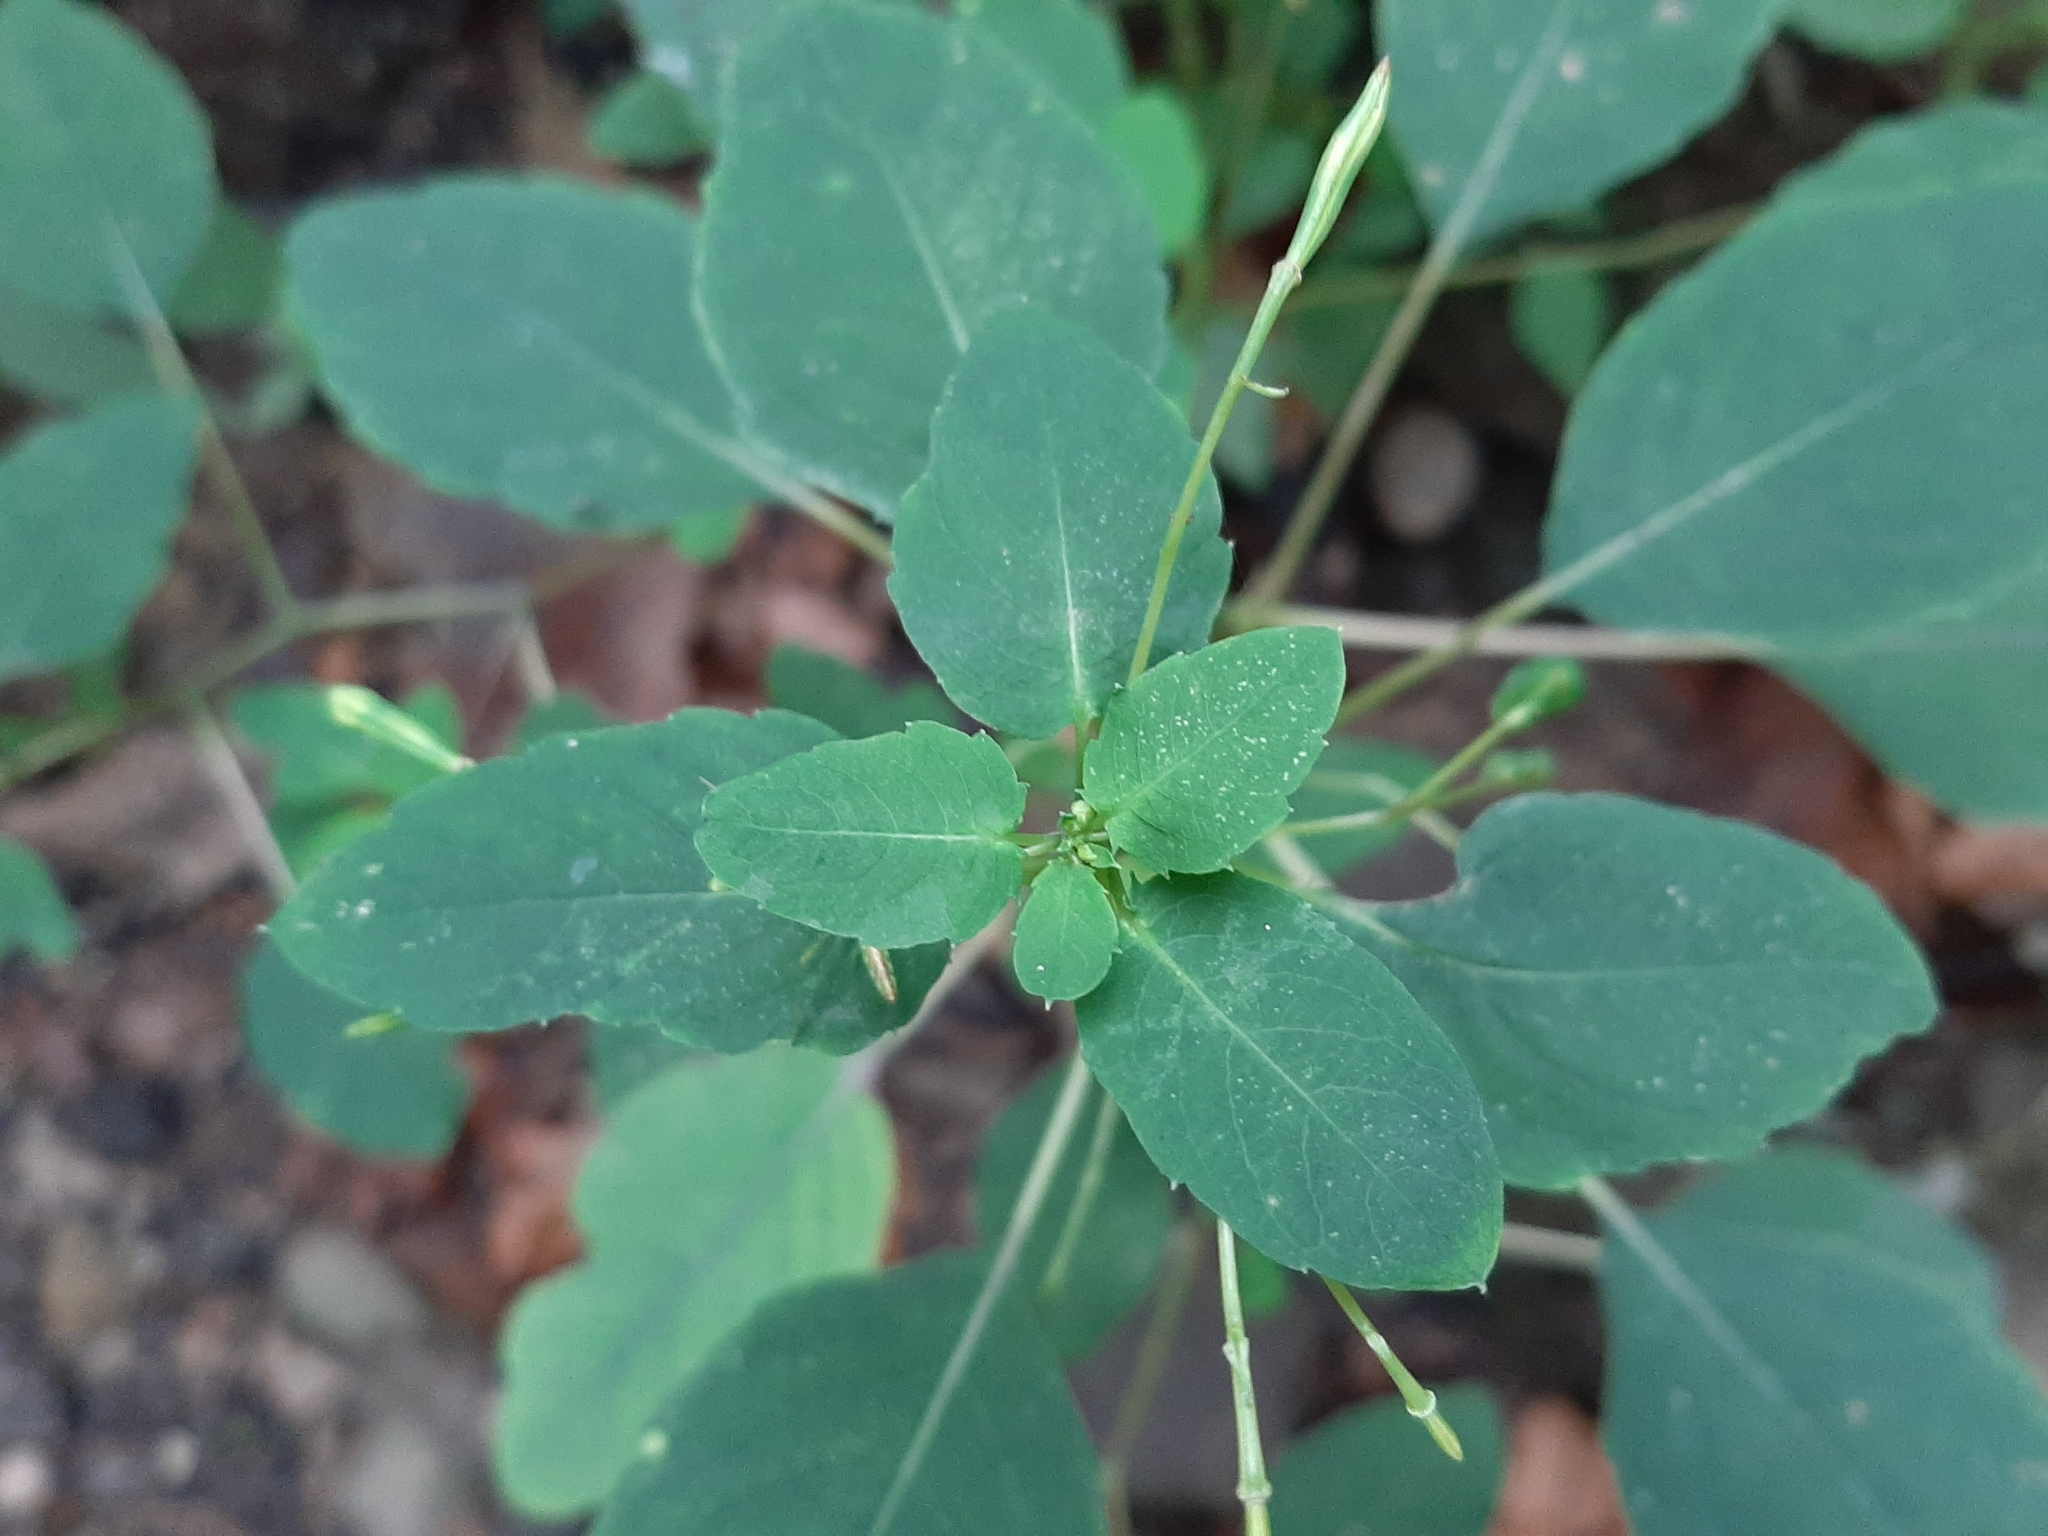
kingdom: Plantae
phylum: Tracheophyta
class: Magnoliopsida
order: Ericales
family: Balsaminaceae
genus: Impatiens
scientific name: Impatiens capensis
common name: Orange balsam
